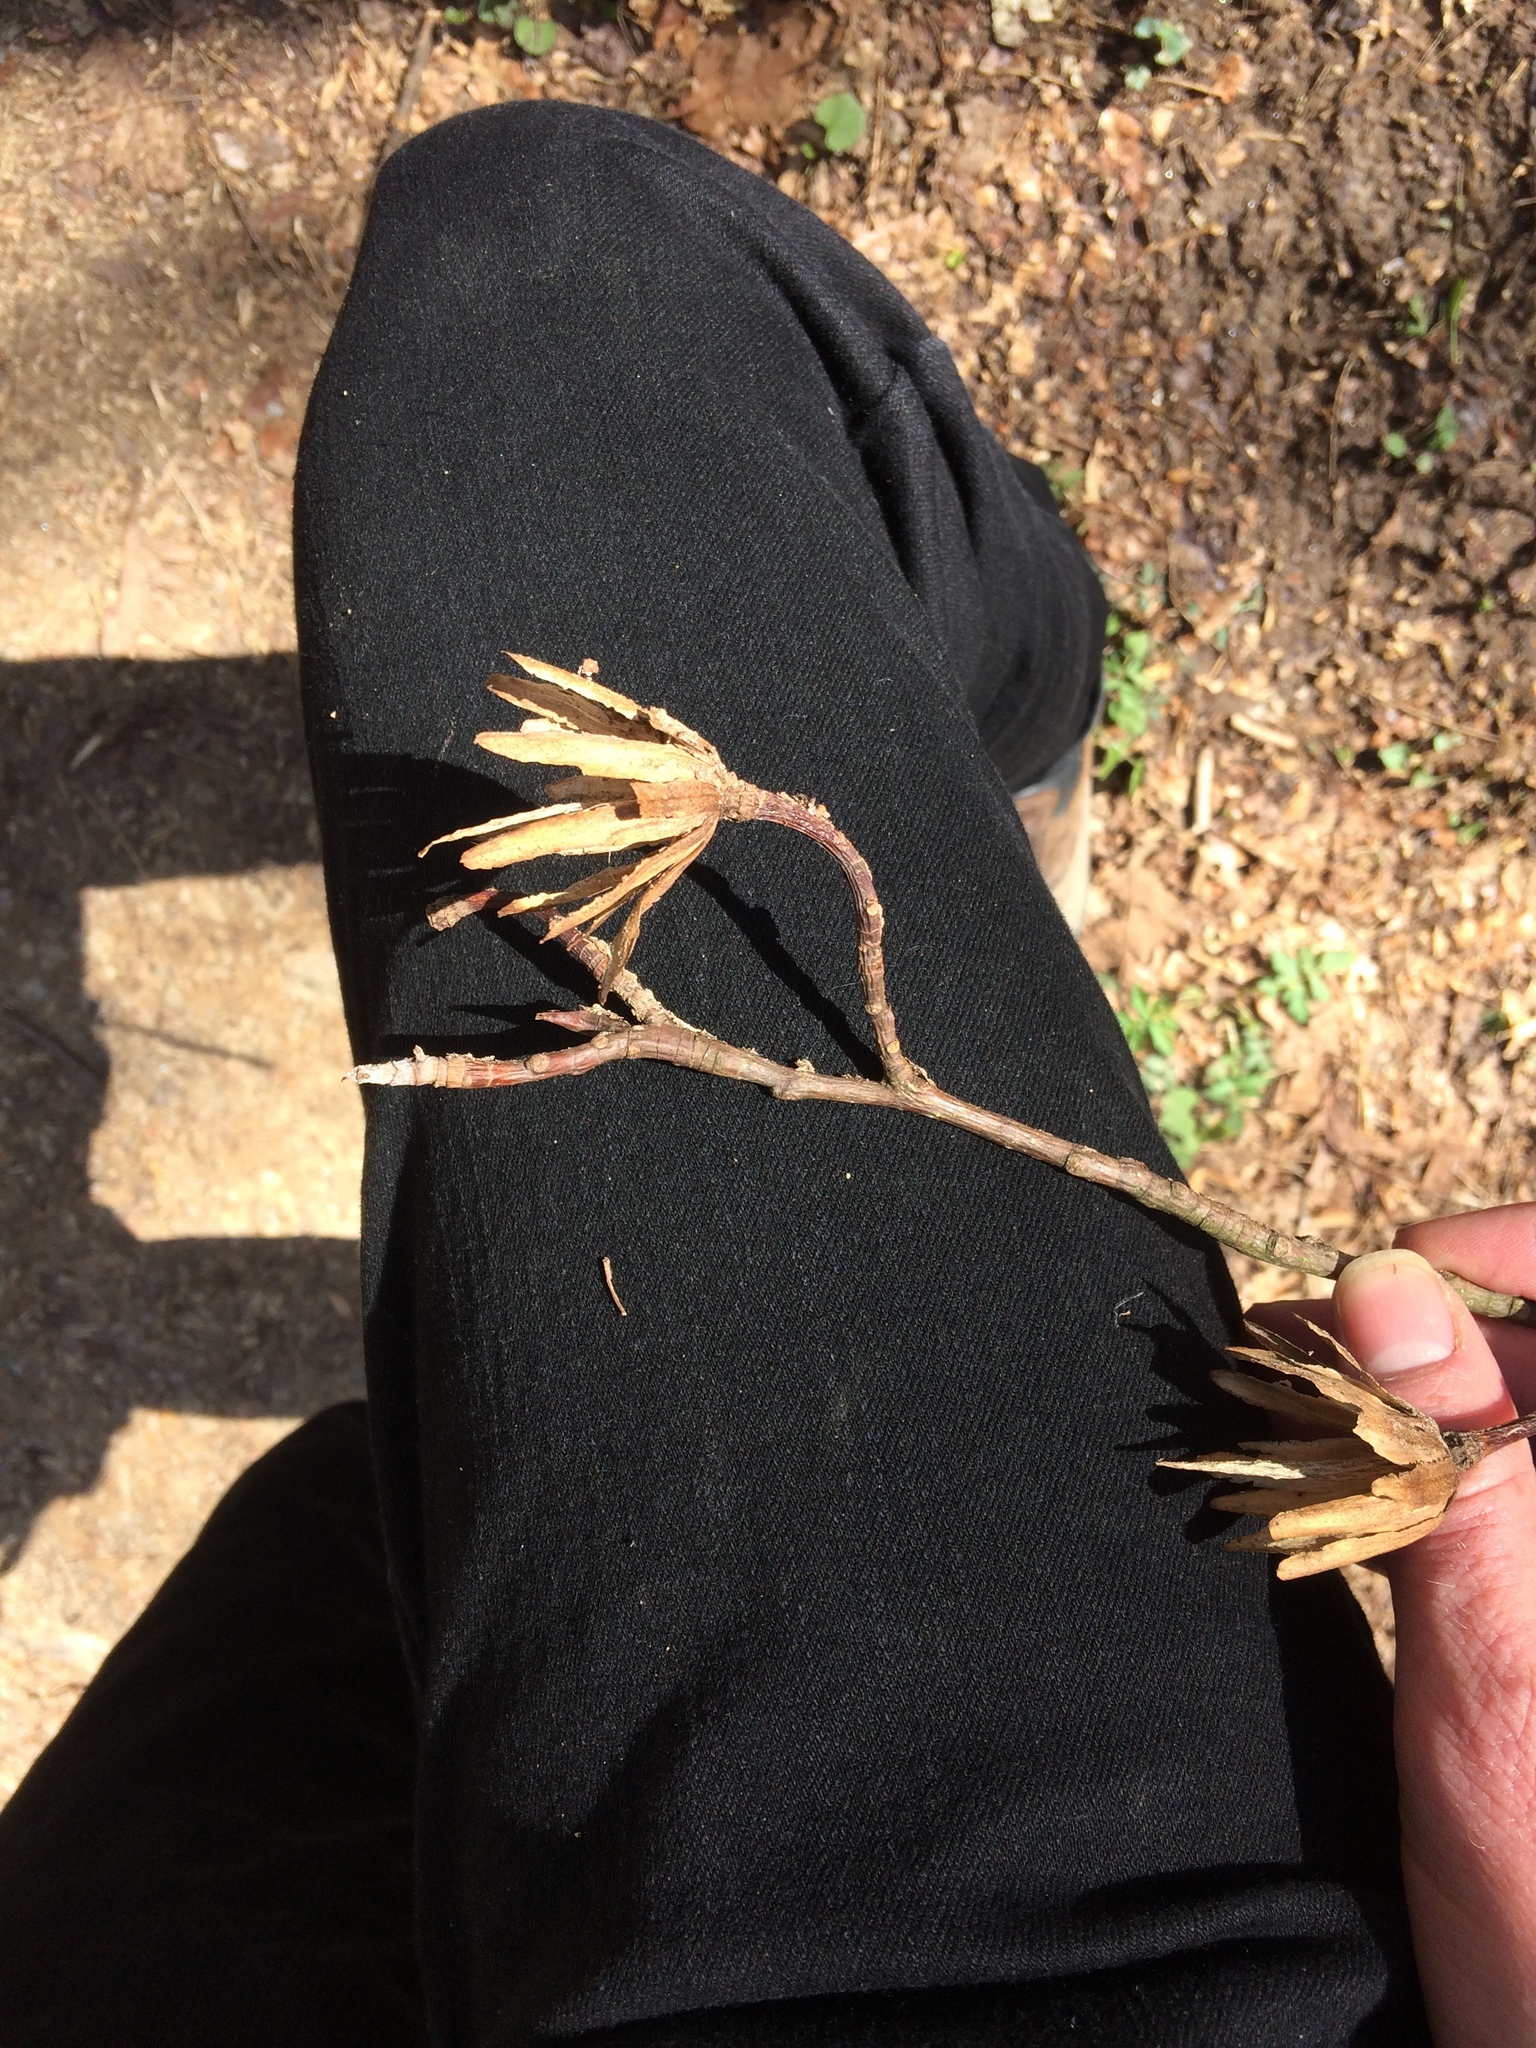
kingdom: Plantae
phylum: Tracheophyta
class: Magnoliopsida
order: Magnoliales
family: Magnoliaceae
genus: Liriodendron
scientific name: Liriodendron tulipifera
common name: Tulip tree
